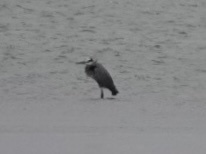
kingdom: Animalia
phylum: Chordata
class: Aves
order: Pelecaniformes
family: Ardeidae
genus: Ardea
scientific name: Ardea herodias
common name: Great blue heron
